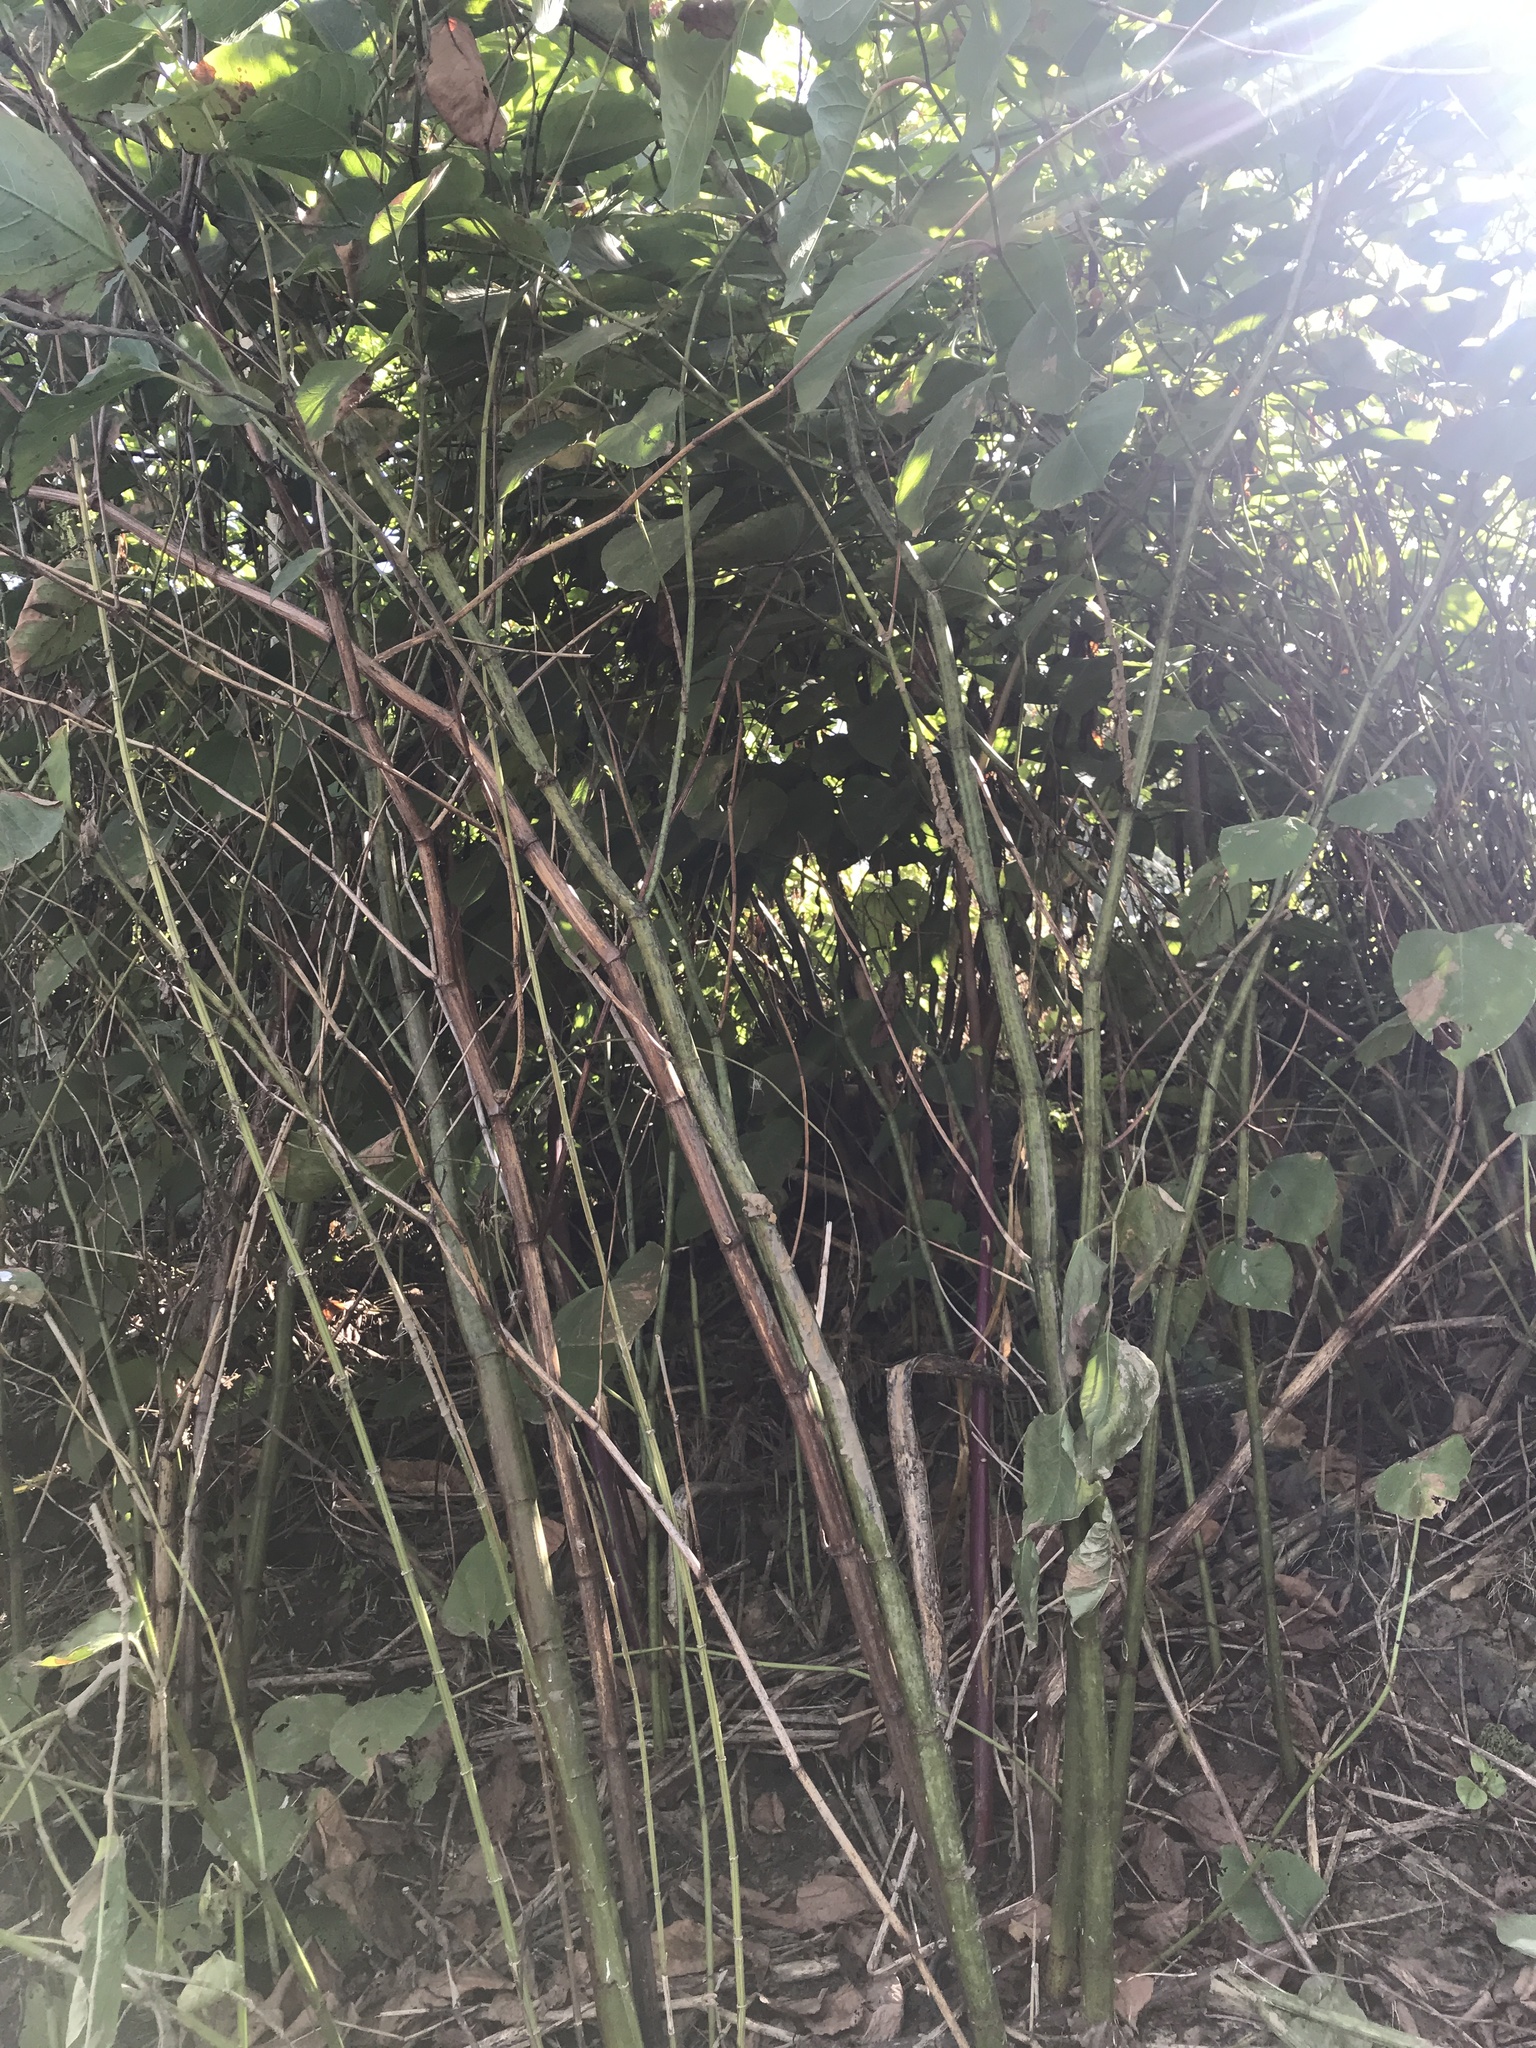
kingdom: Plantae
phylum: Tracheophyta
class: Magnoliopsida
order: Caryophyllales
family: Polygonaceae
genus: Reynoutria
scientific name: Reynoutria japonica
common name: Japanese knotweed
